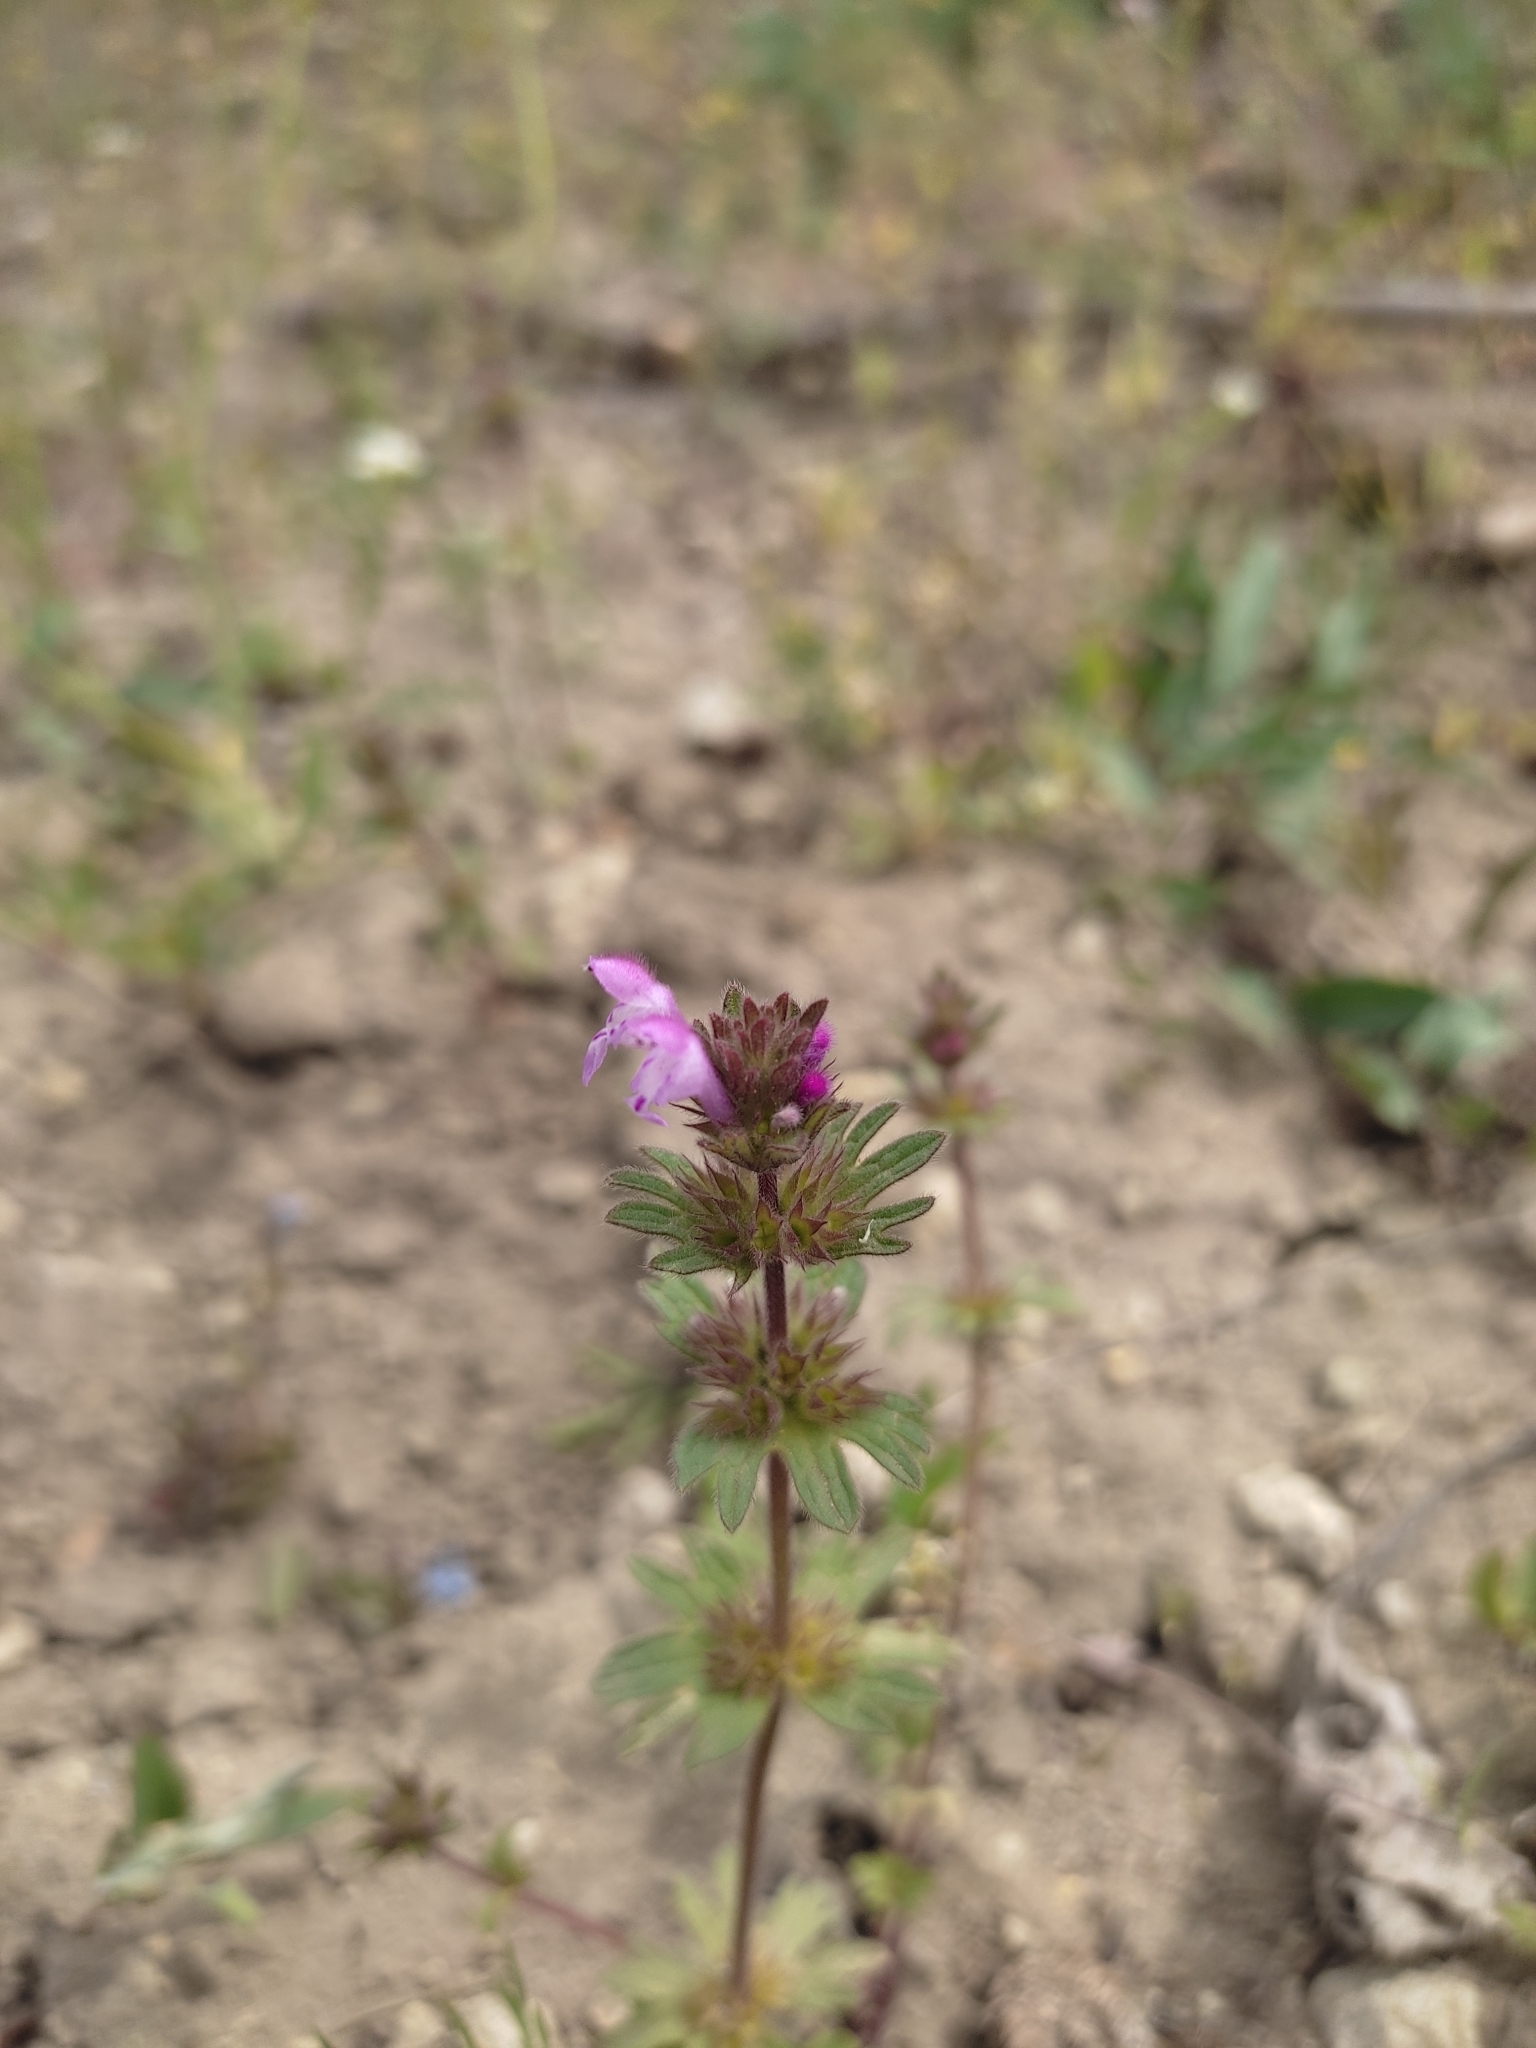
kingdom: Plantae
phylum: Tracheophyta
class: Magnoliopsida
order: Lamiales
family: Lamiaceae
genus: Lamium
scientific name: Lamium amplexicaule
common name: Henbit dead-nettle
